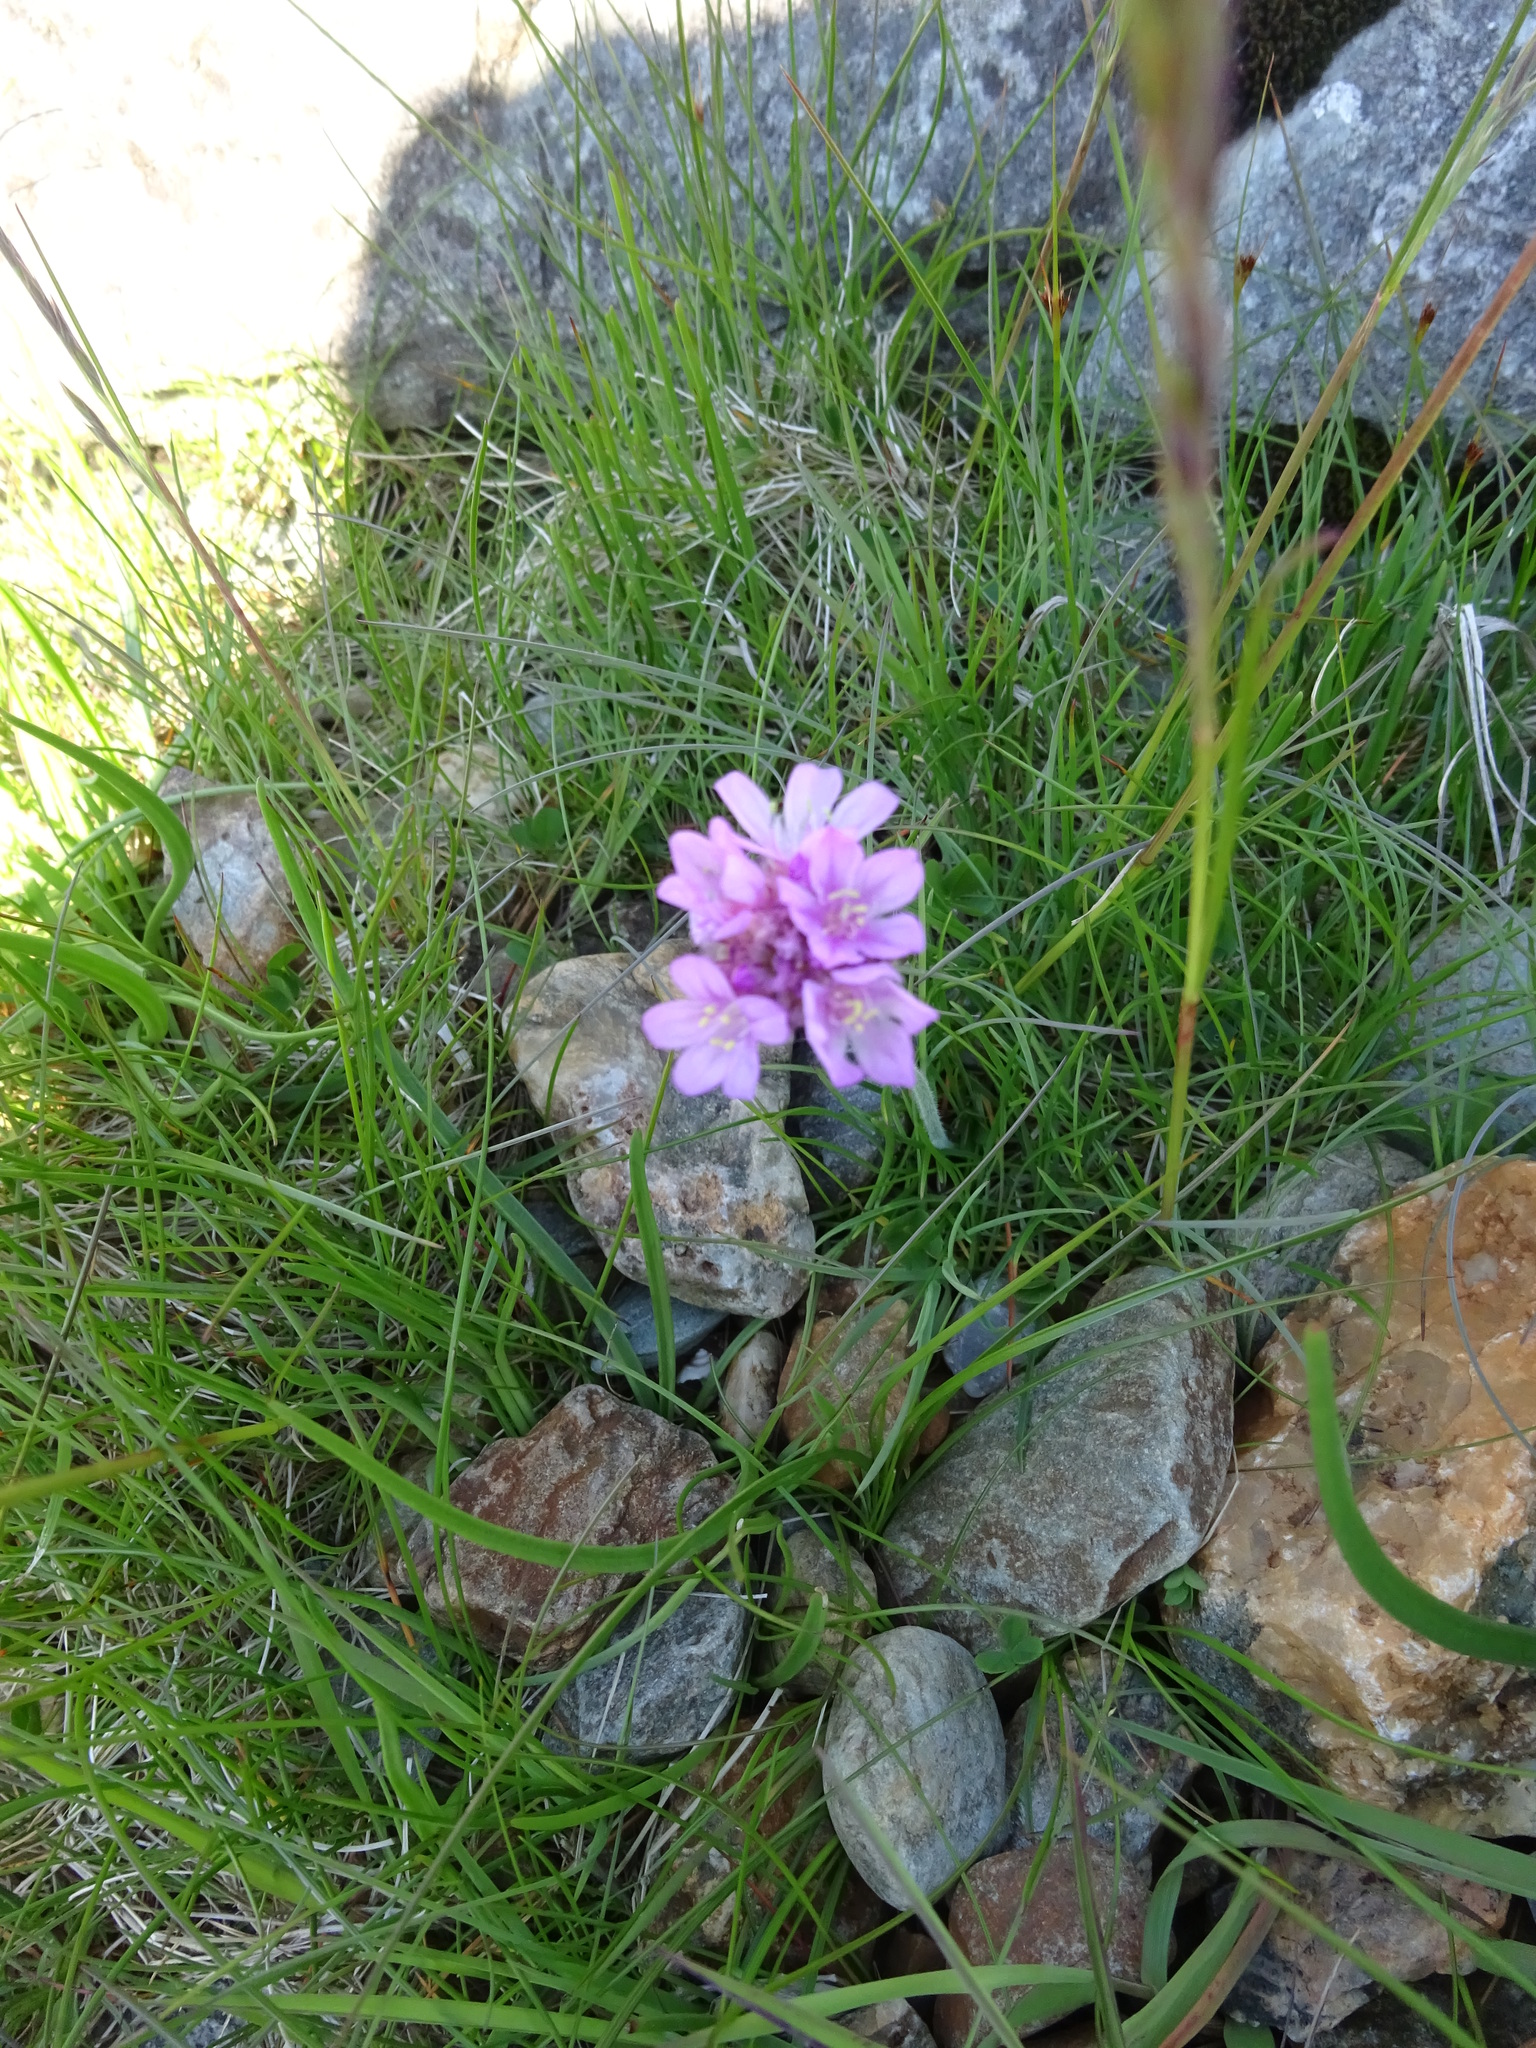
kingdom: Plantae
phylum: Tracheophyta
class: Magnoliopsida
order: Caryophyllales
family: Plumbaginaceae
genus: Armeria
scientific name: Armeria maritima
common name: Thrift
